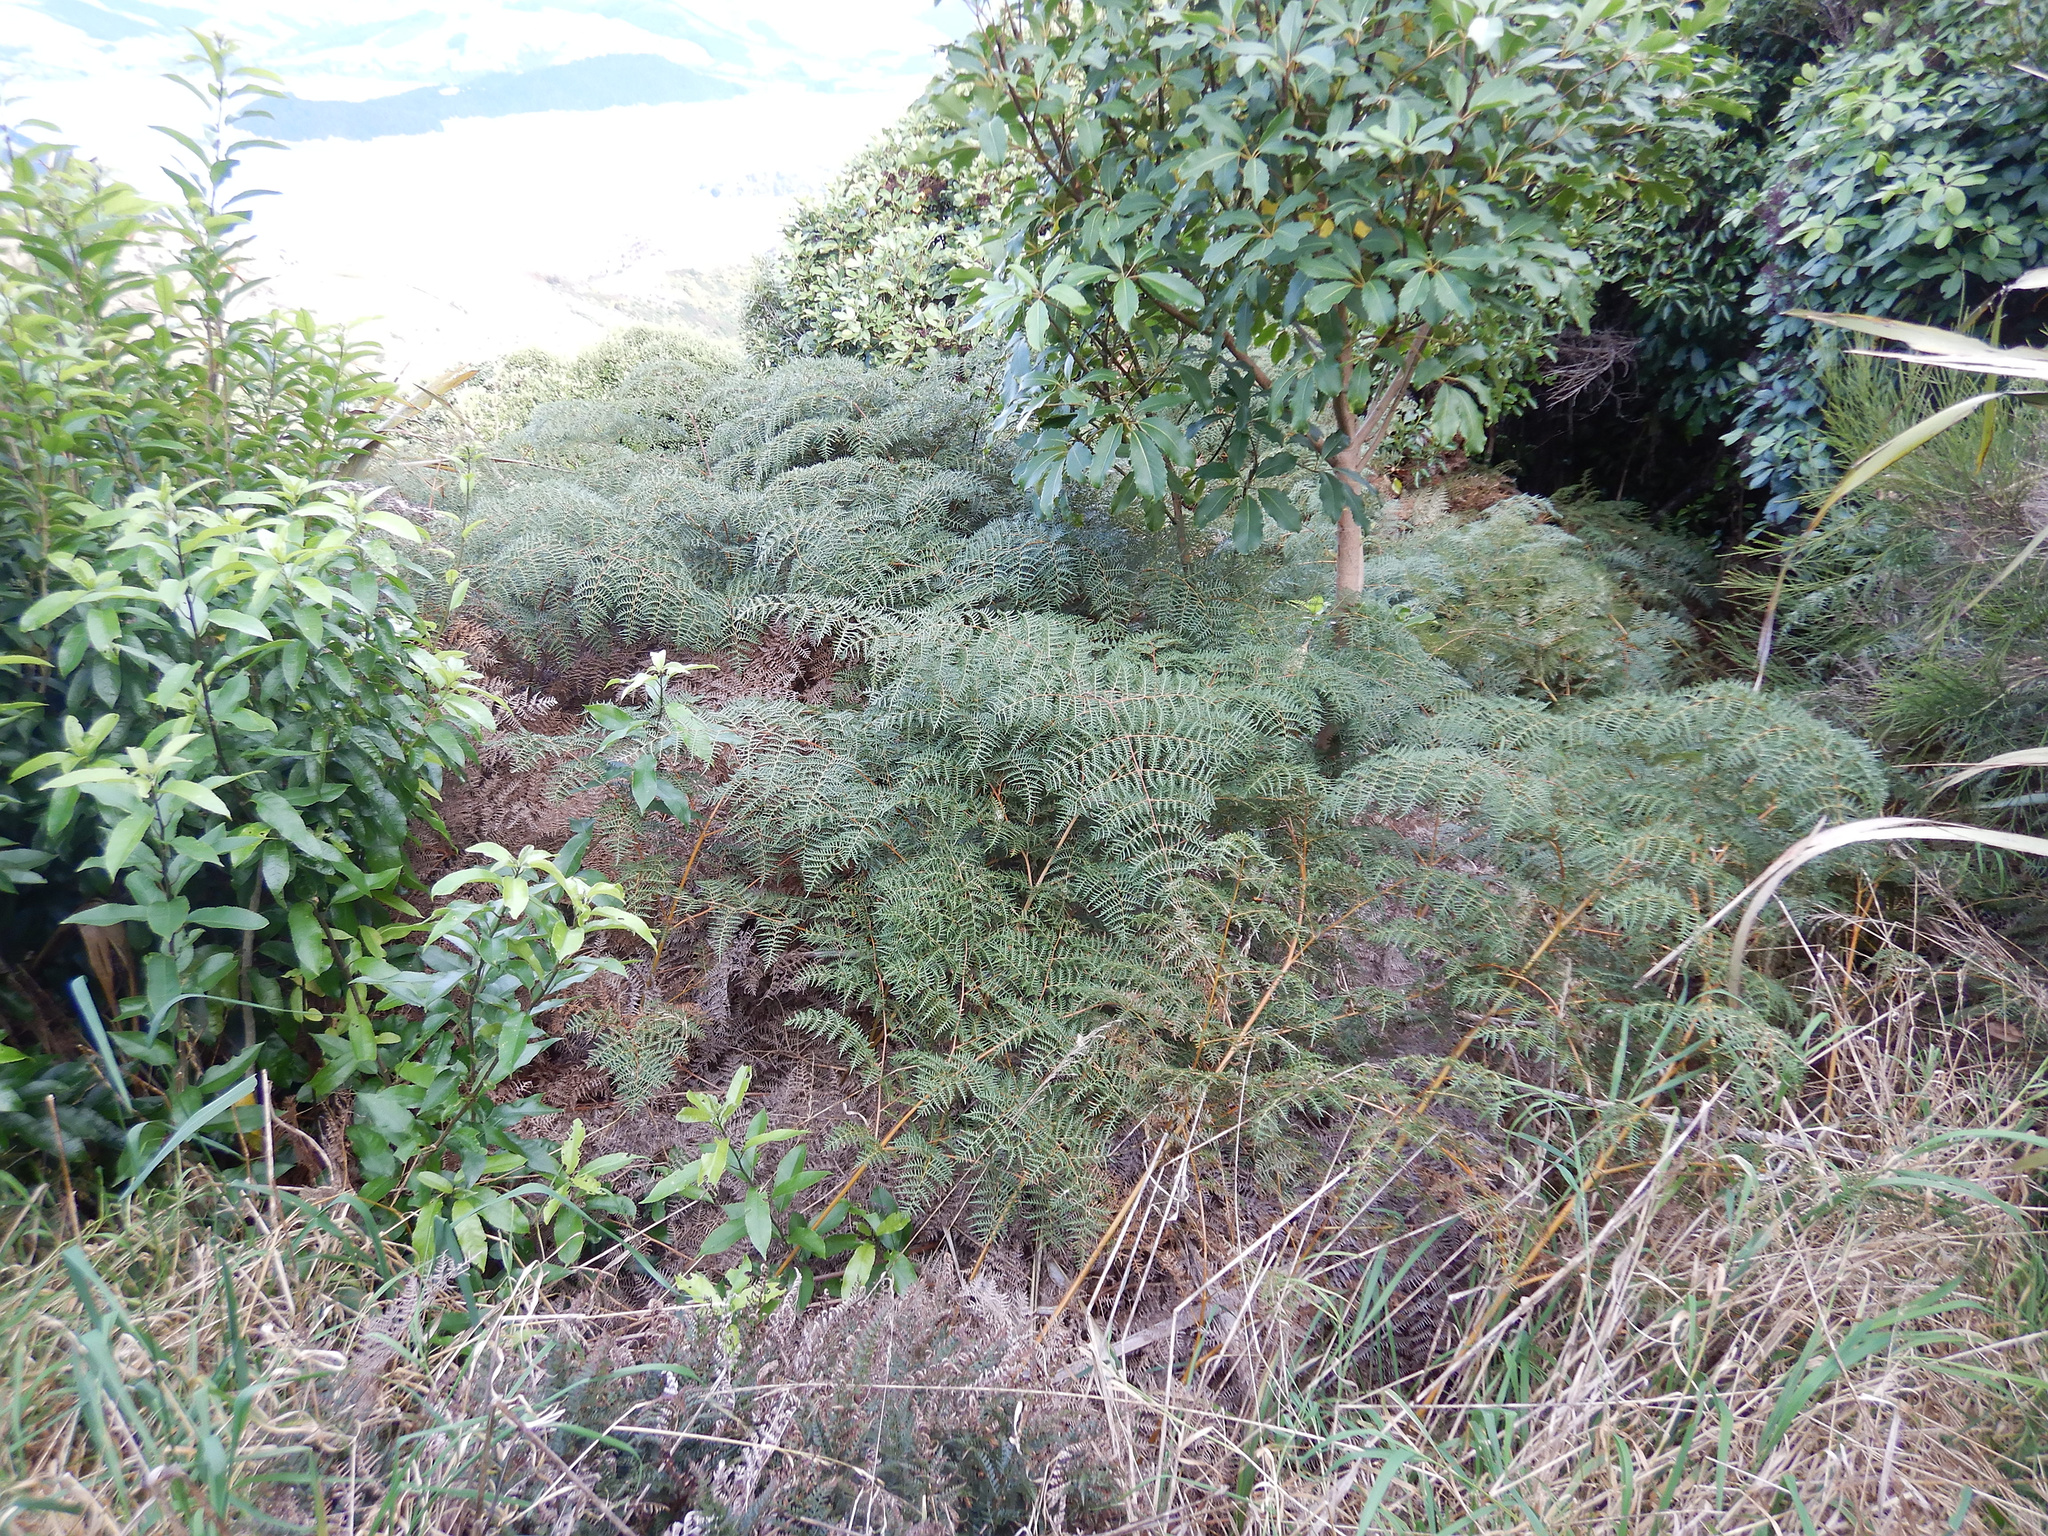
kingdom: Plantae
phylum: Tracheophyta
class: Polypodiopsida
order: Polypodiales
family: Dennstaedtiaceae
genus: Pteridium
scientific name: Pteridium esculentum
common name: Bracken fern
